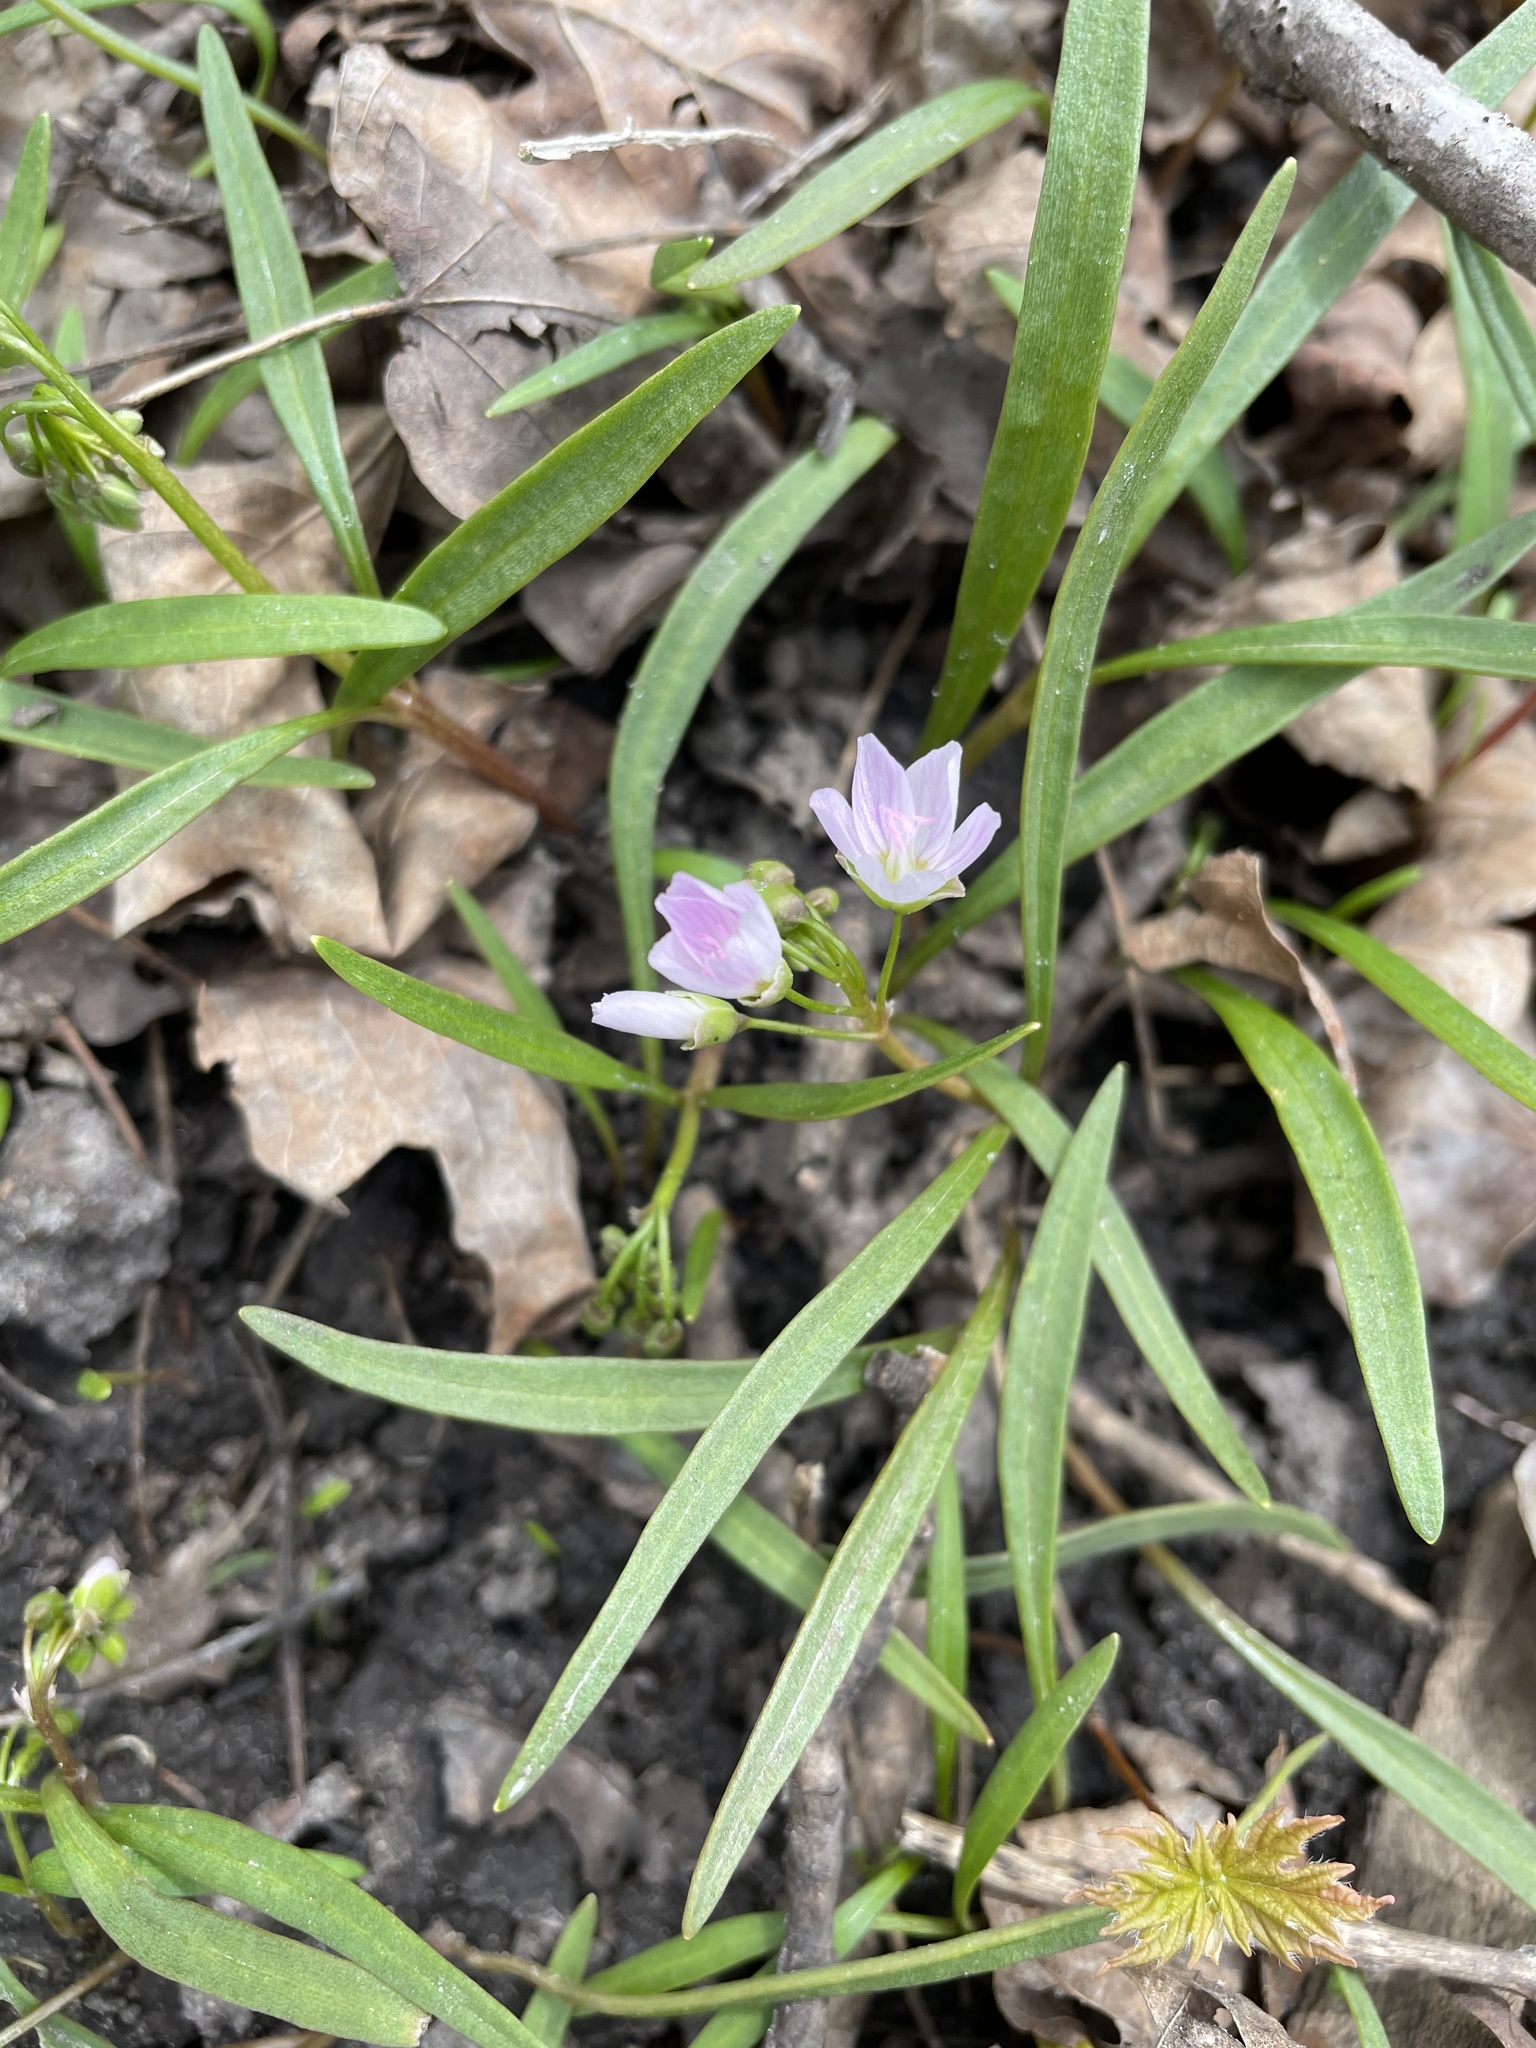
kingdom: Plantae
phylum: Tracheophyta
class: Magnoliopsida
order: Caryophyllales
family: Montiaceae
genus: Claytonia
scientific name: Claytonia virginica
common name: Virginia springbeauty
